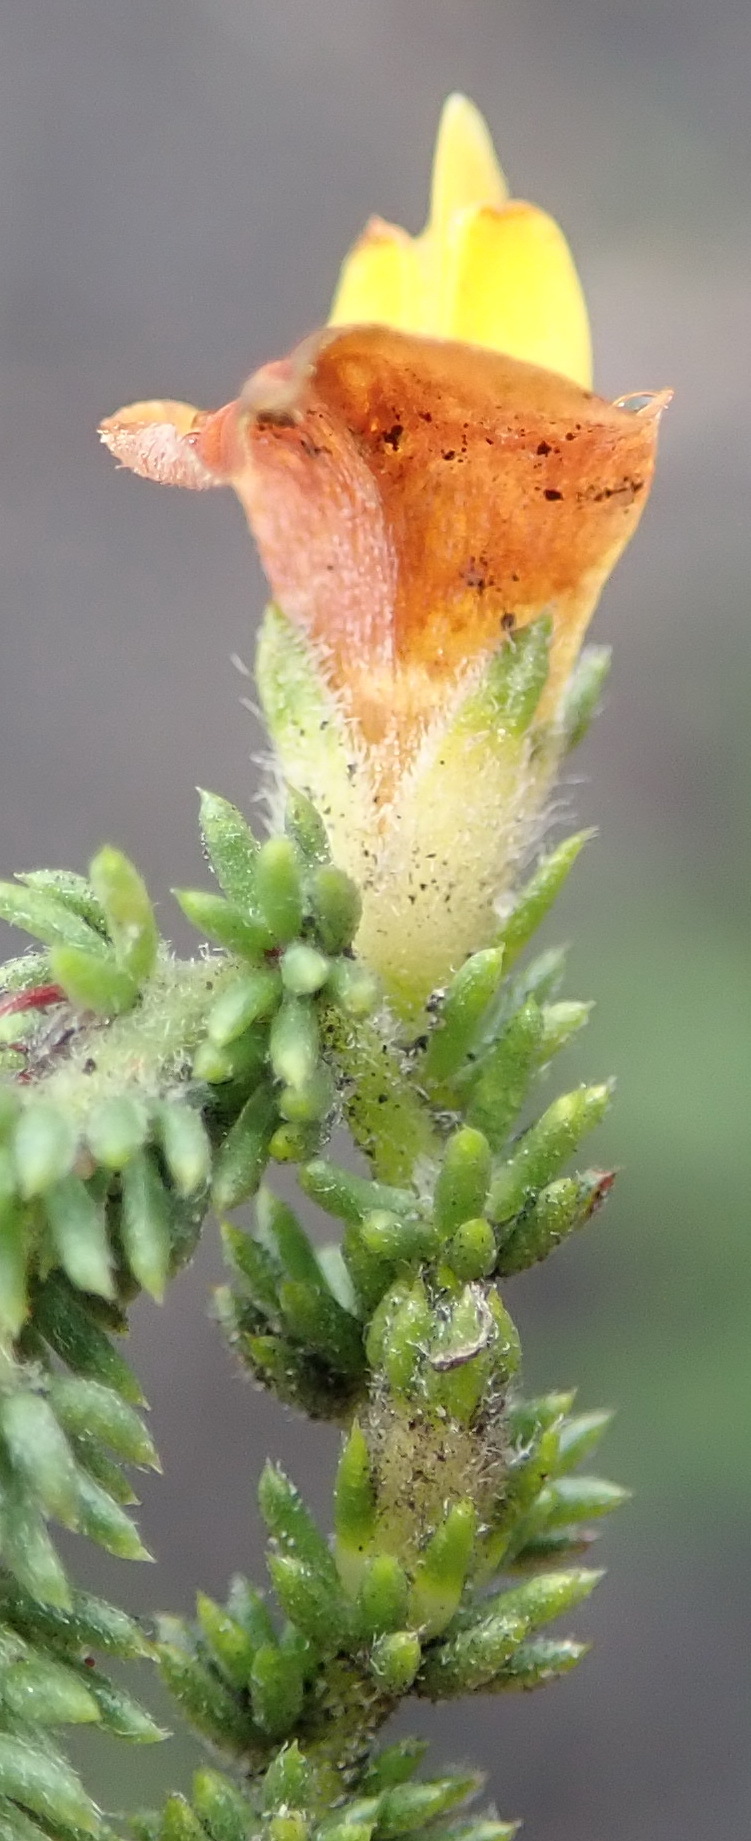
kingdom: Plantae
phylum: Tracheophyta
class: Magnoliopsida
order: Fabales
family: Fabaceae
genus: Aspalathus
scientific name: Aspalathus opaca
